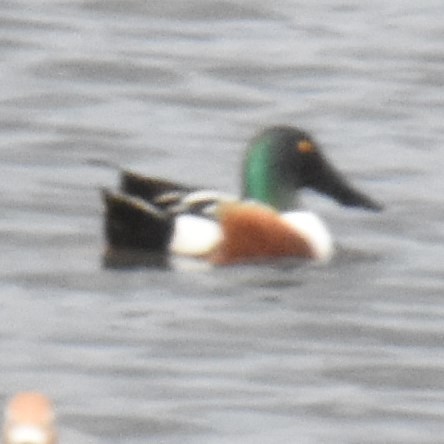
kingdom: Animalia
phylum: Chordata
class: Aves
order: Anseriformes
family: Anatidae
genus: Spatula
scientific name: Spatula clypeata
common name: Northern shoveler
